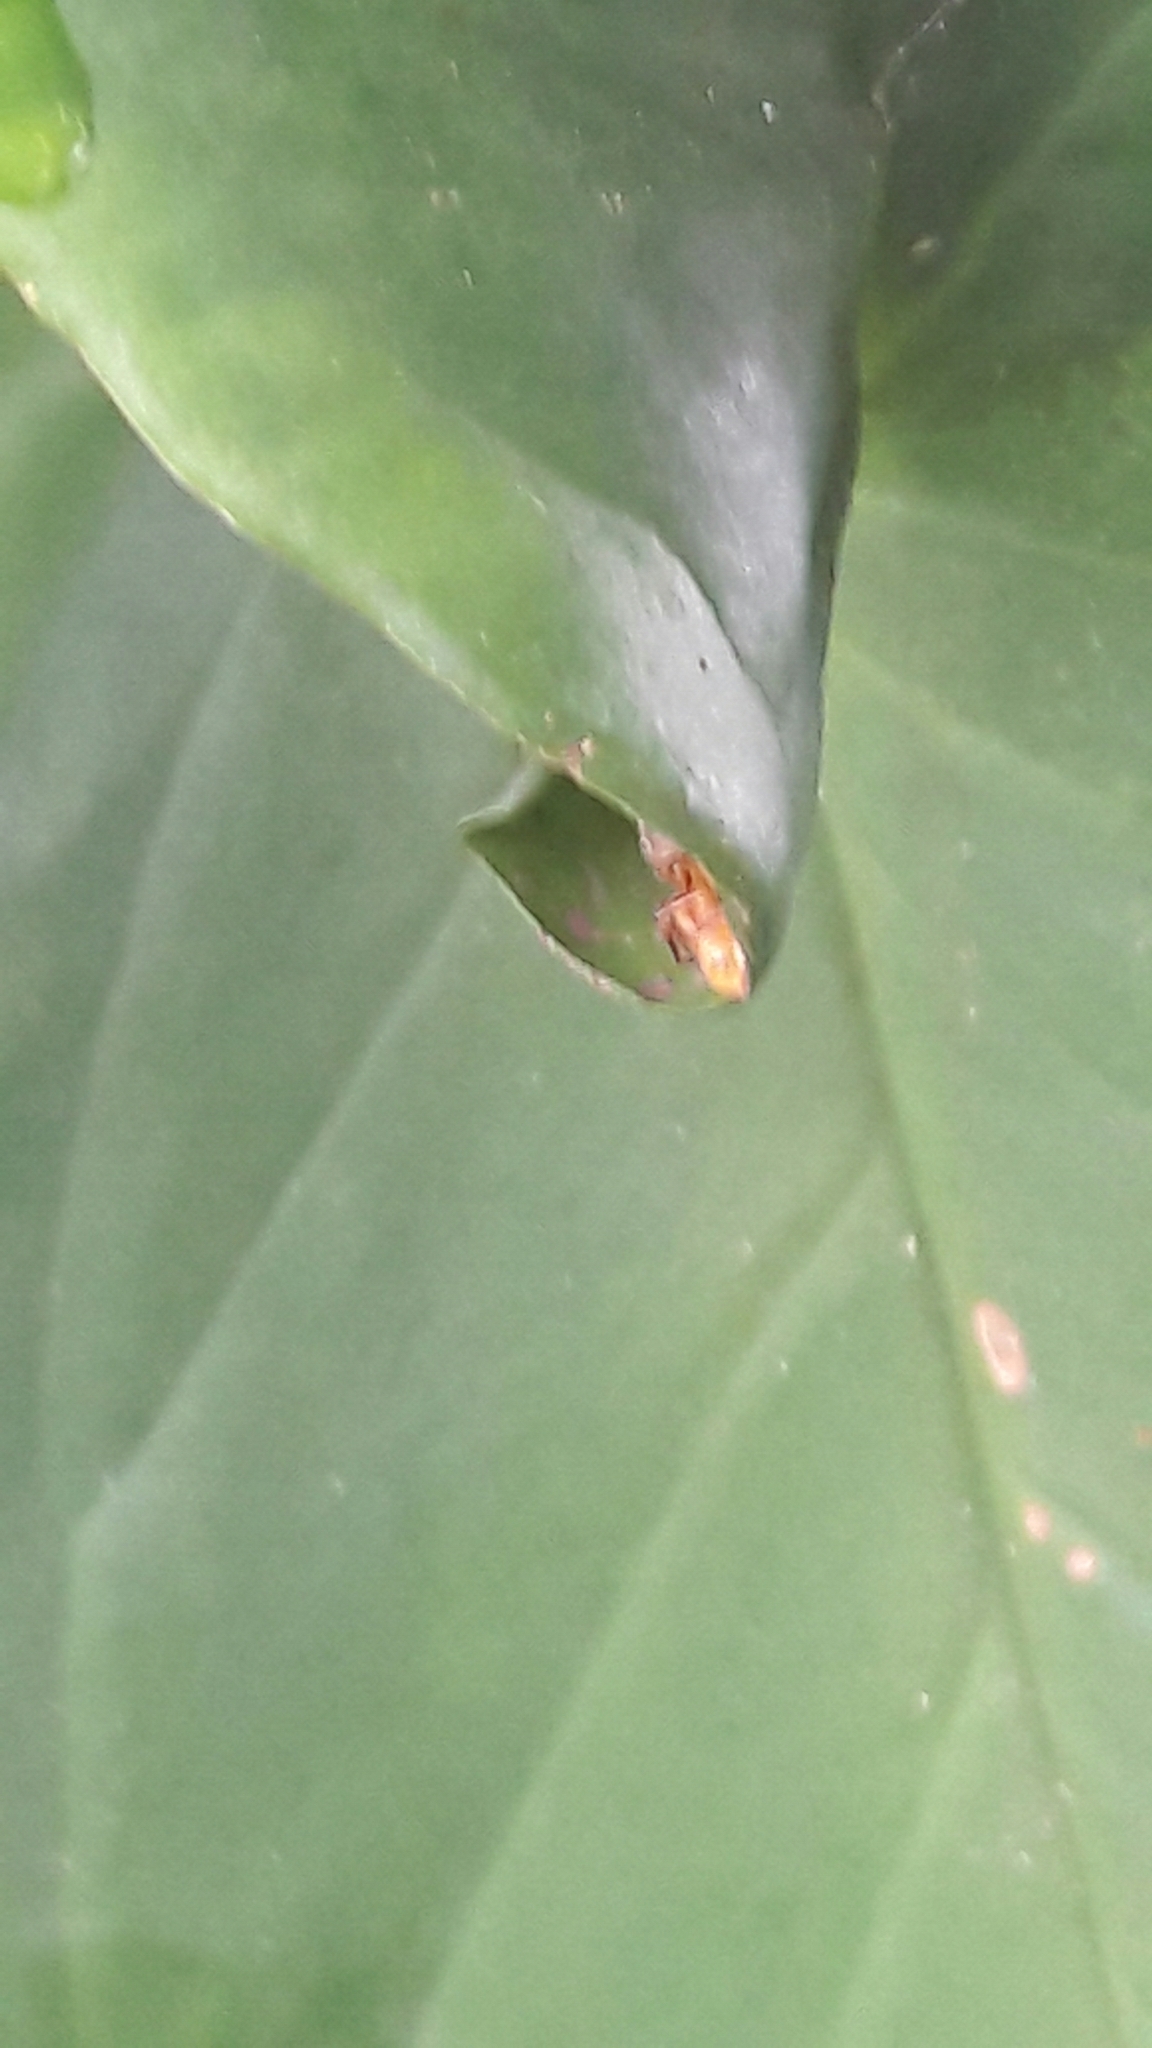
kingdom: Animalia
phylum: Arthropoda
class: Arachnida
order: Araneae
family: Salticidae
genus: Gypogyna
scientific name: Gypogyna forceps
